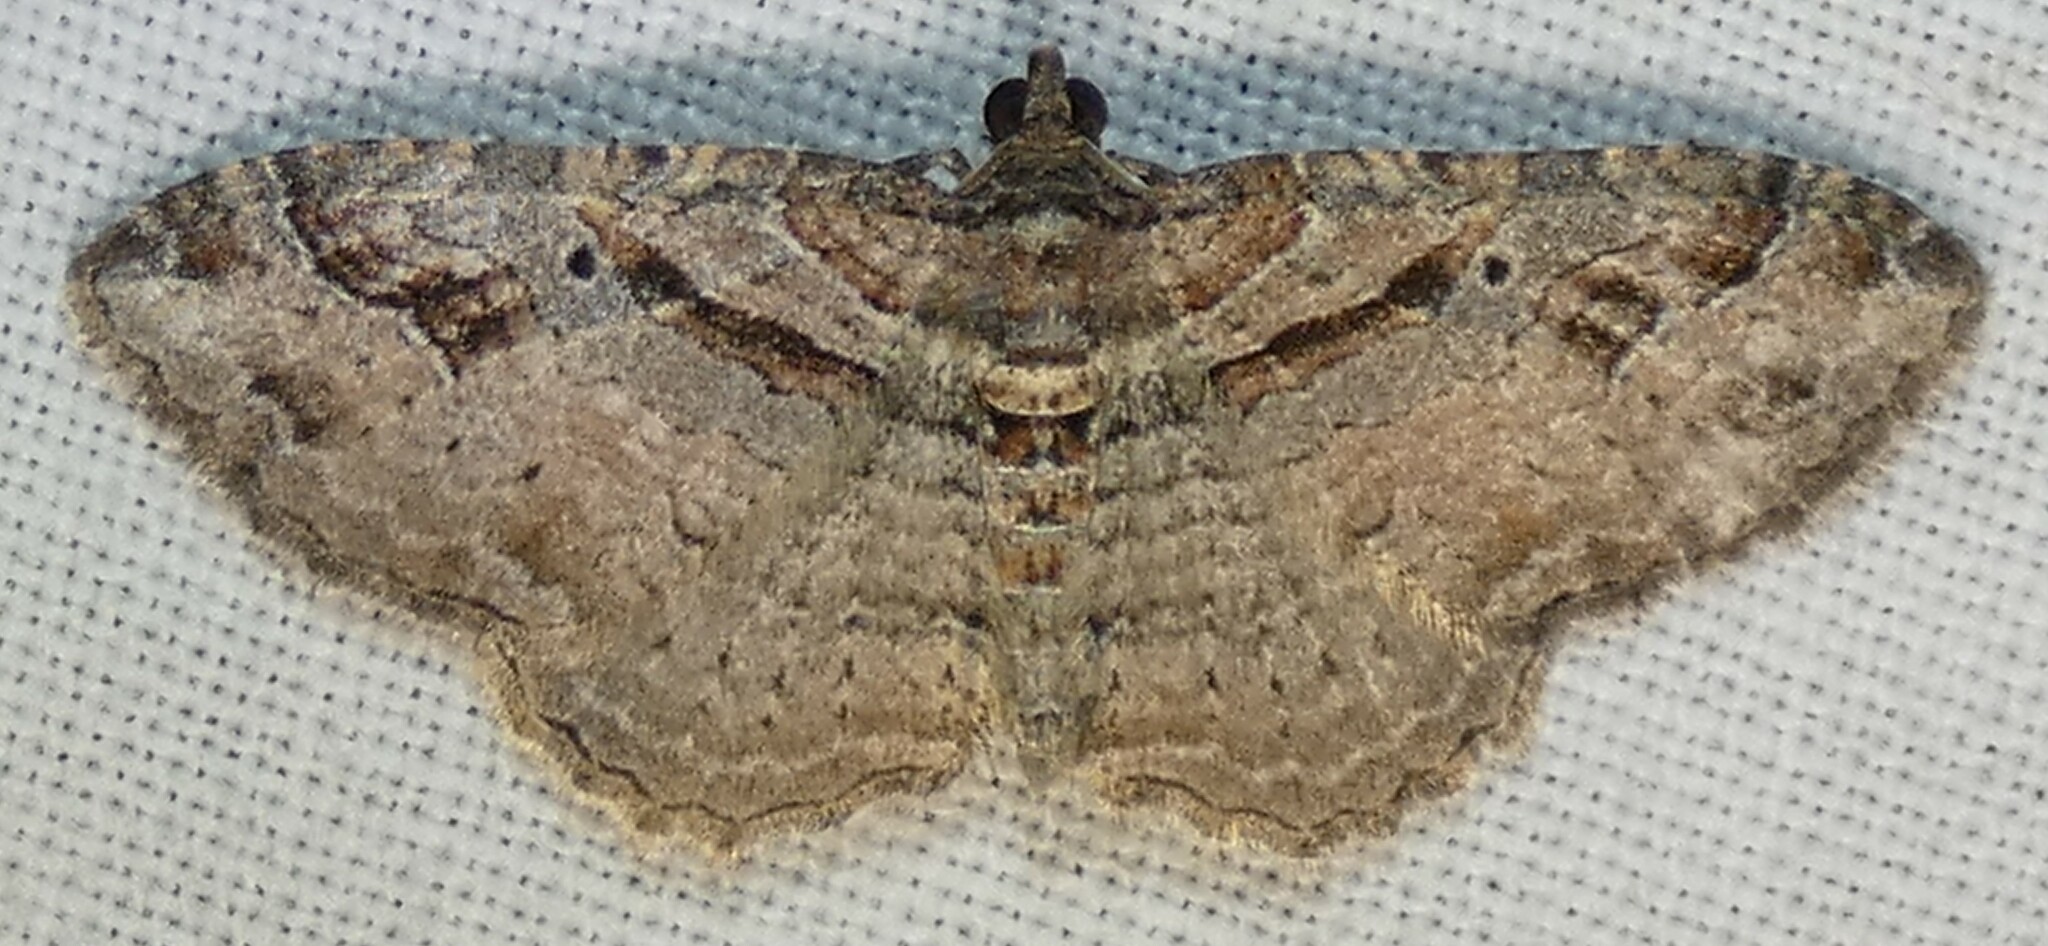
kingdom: Animalia
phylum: Arthropoda
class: Insecta
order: Lepidoptera
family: Geometridae
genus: Costaconvexa
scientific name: Costaconvexa centrostrigaria
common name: Bent-line carpet
